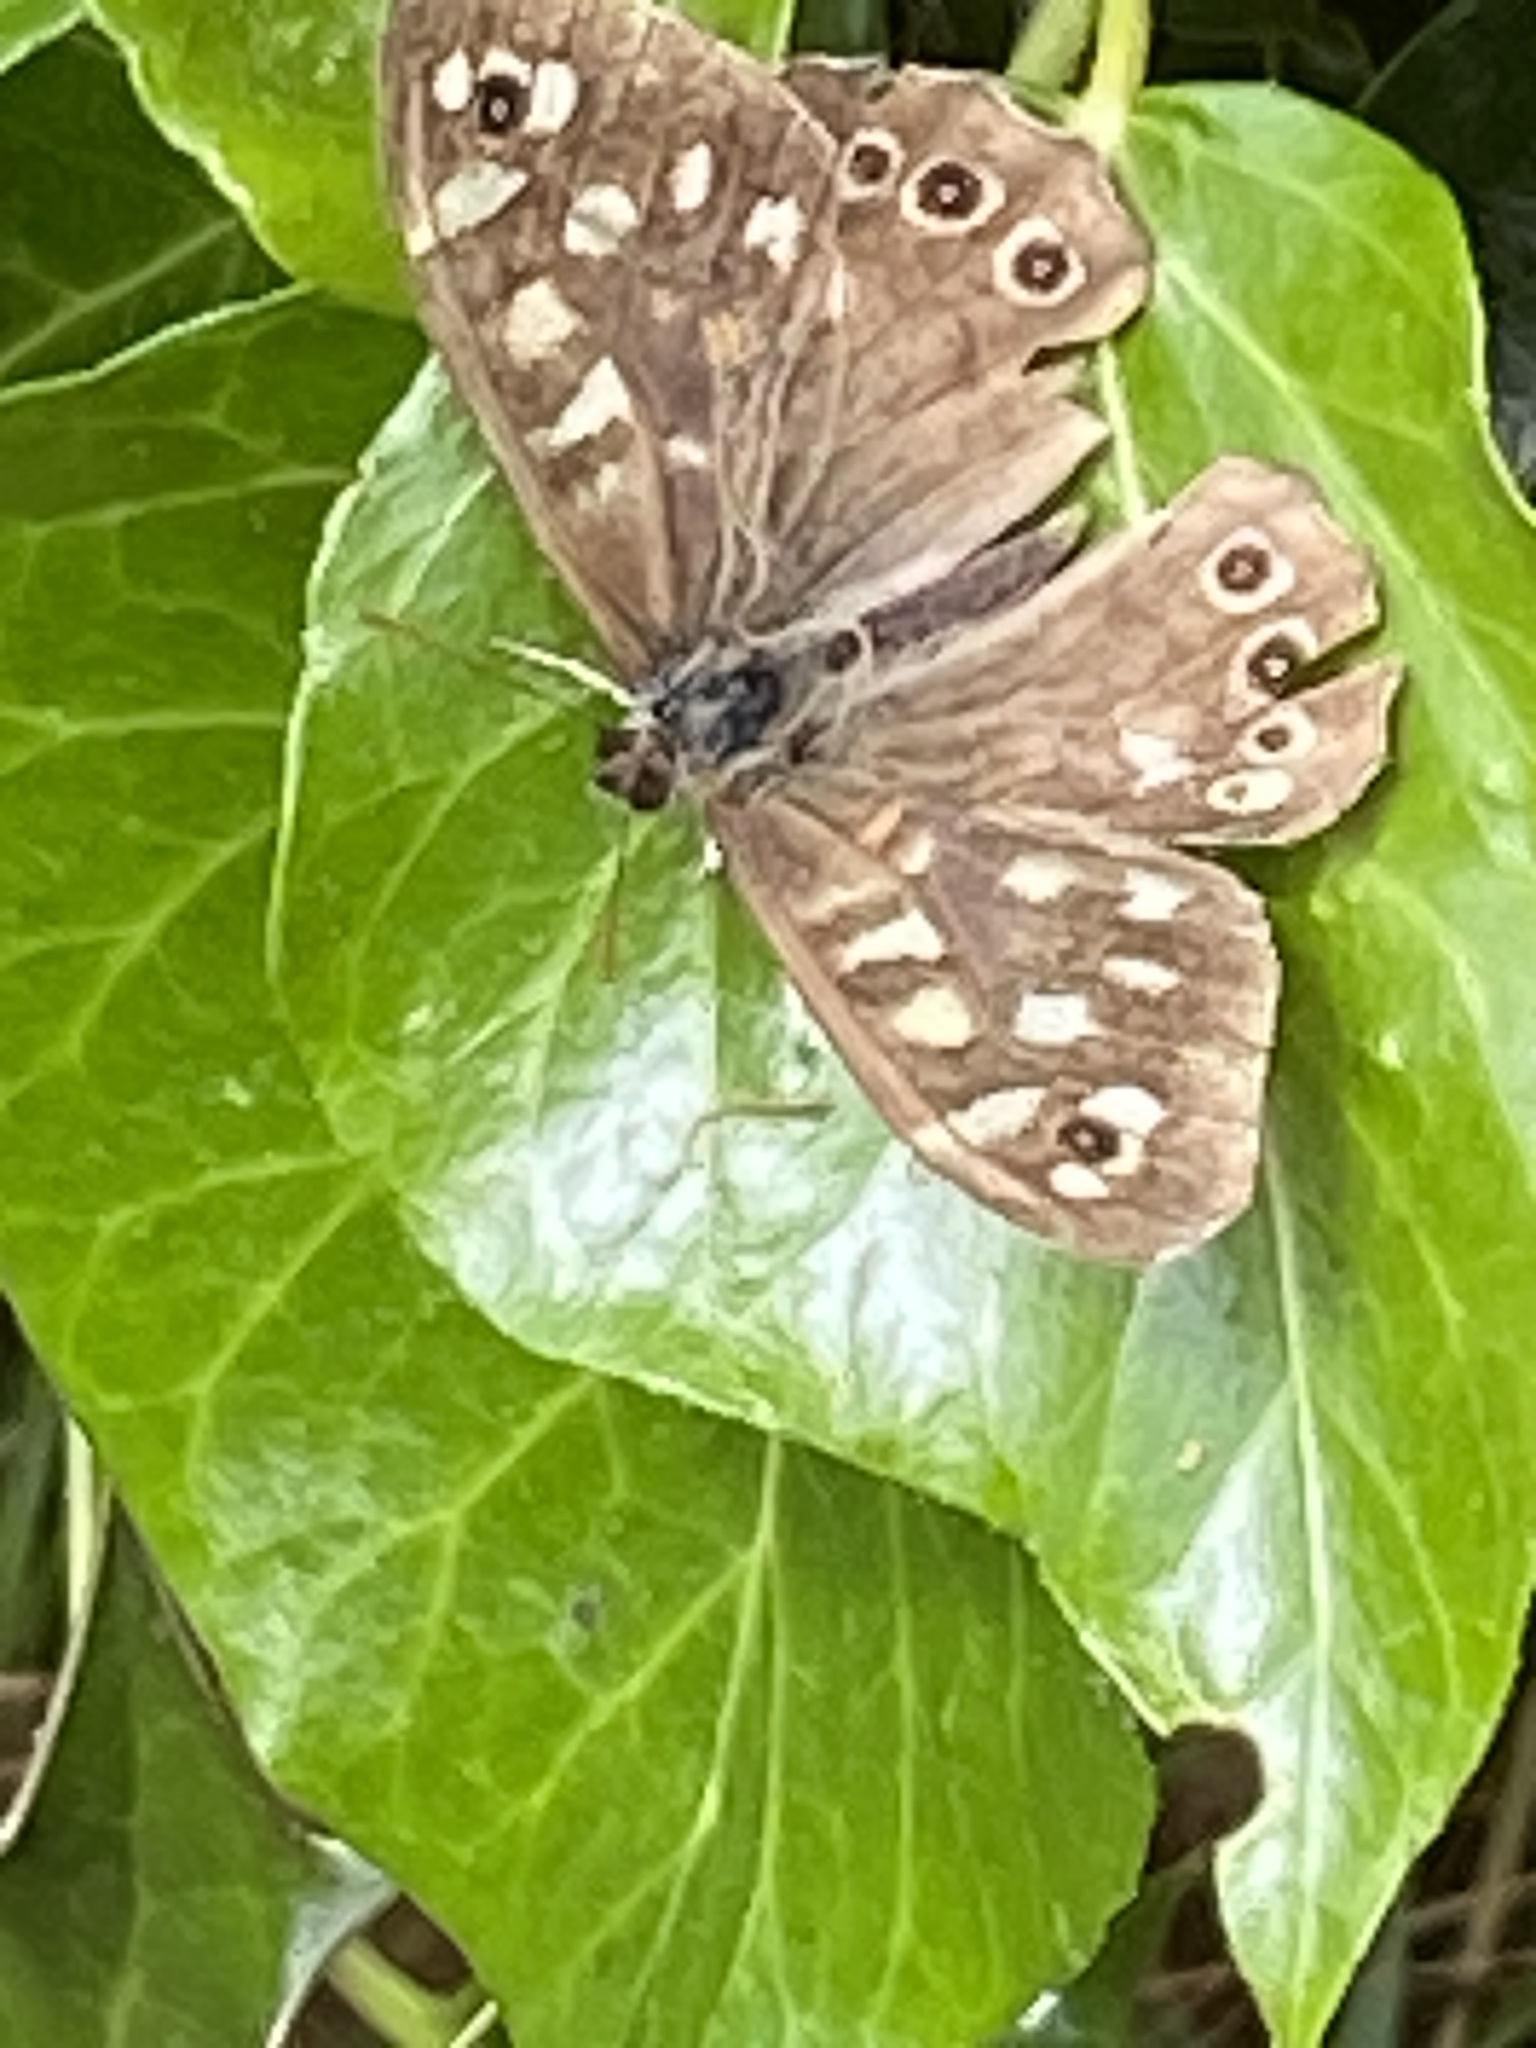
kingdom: Animalia
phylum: Arthropoda
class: Insecta
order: Lepidoptera
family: Nymphalidae
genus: Pararge
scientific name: Pararge aegeria
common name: Speckled wood
